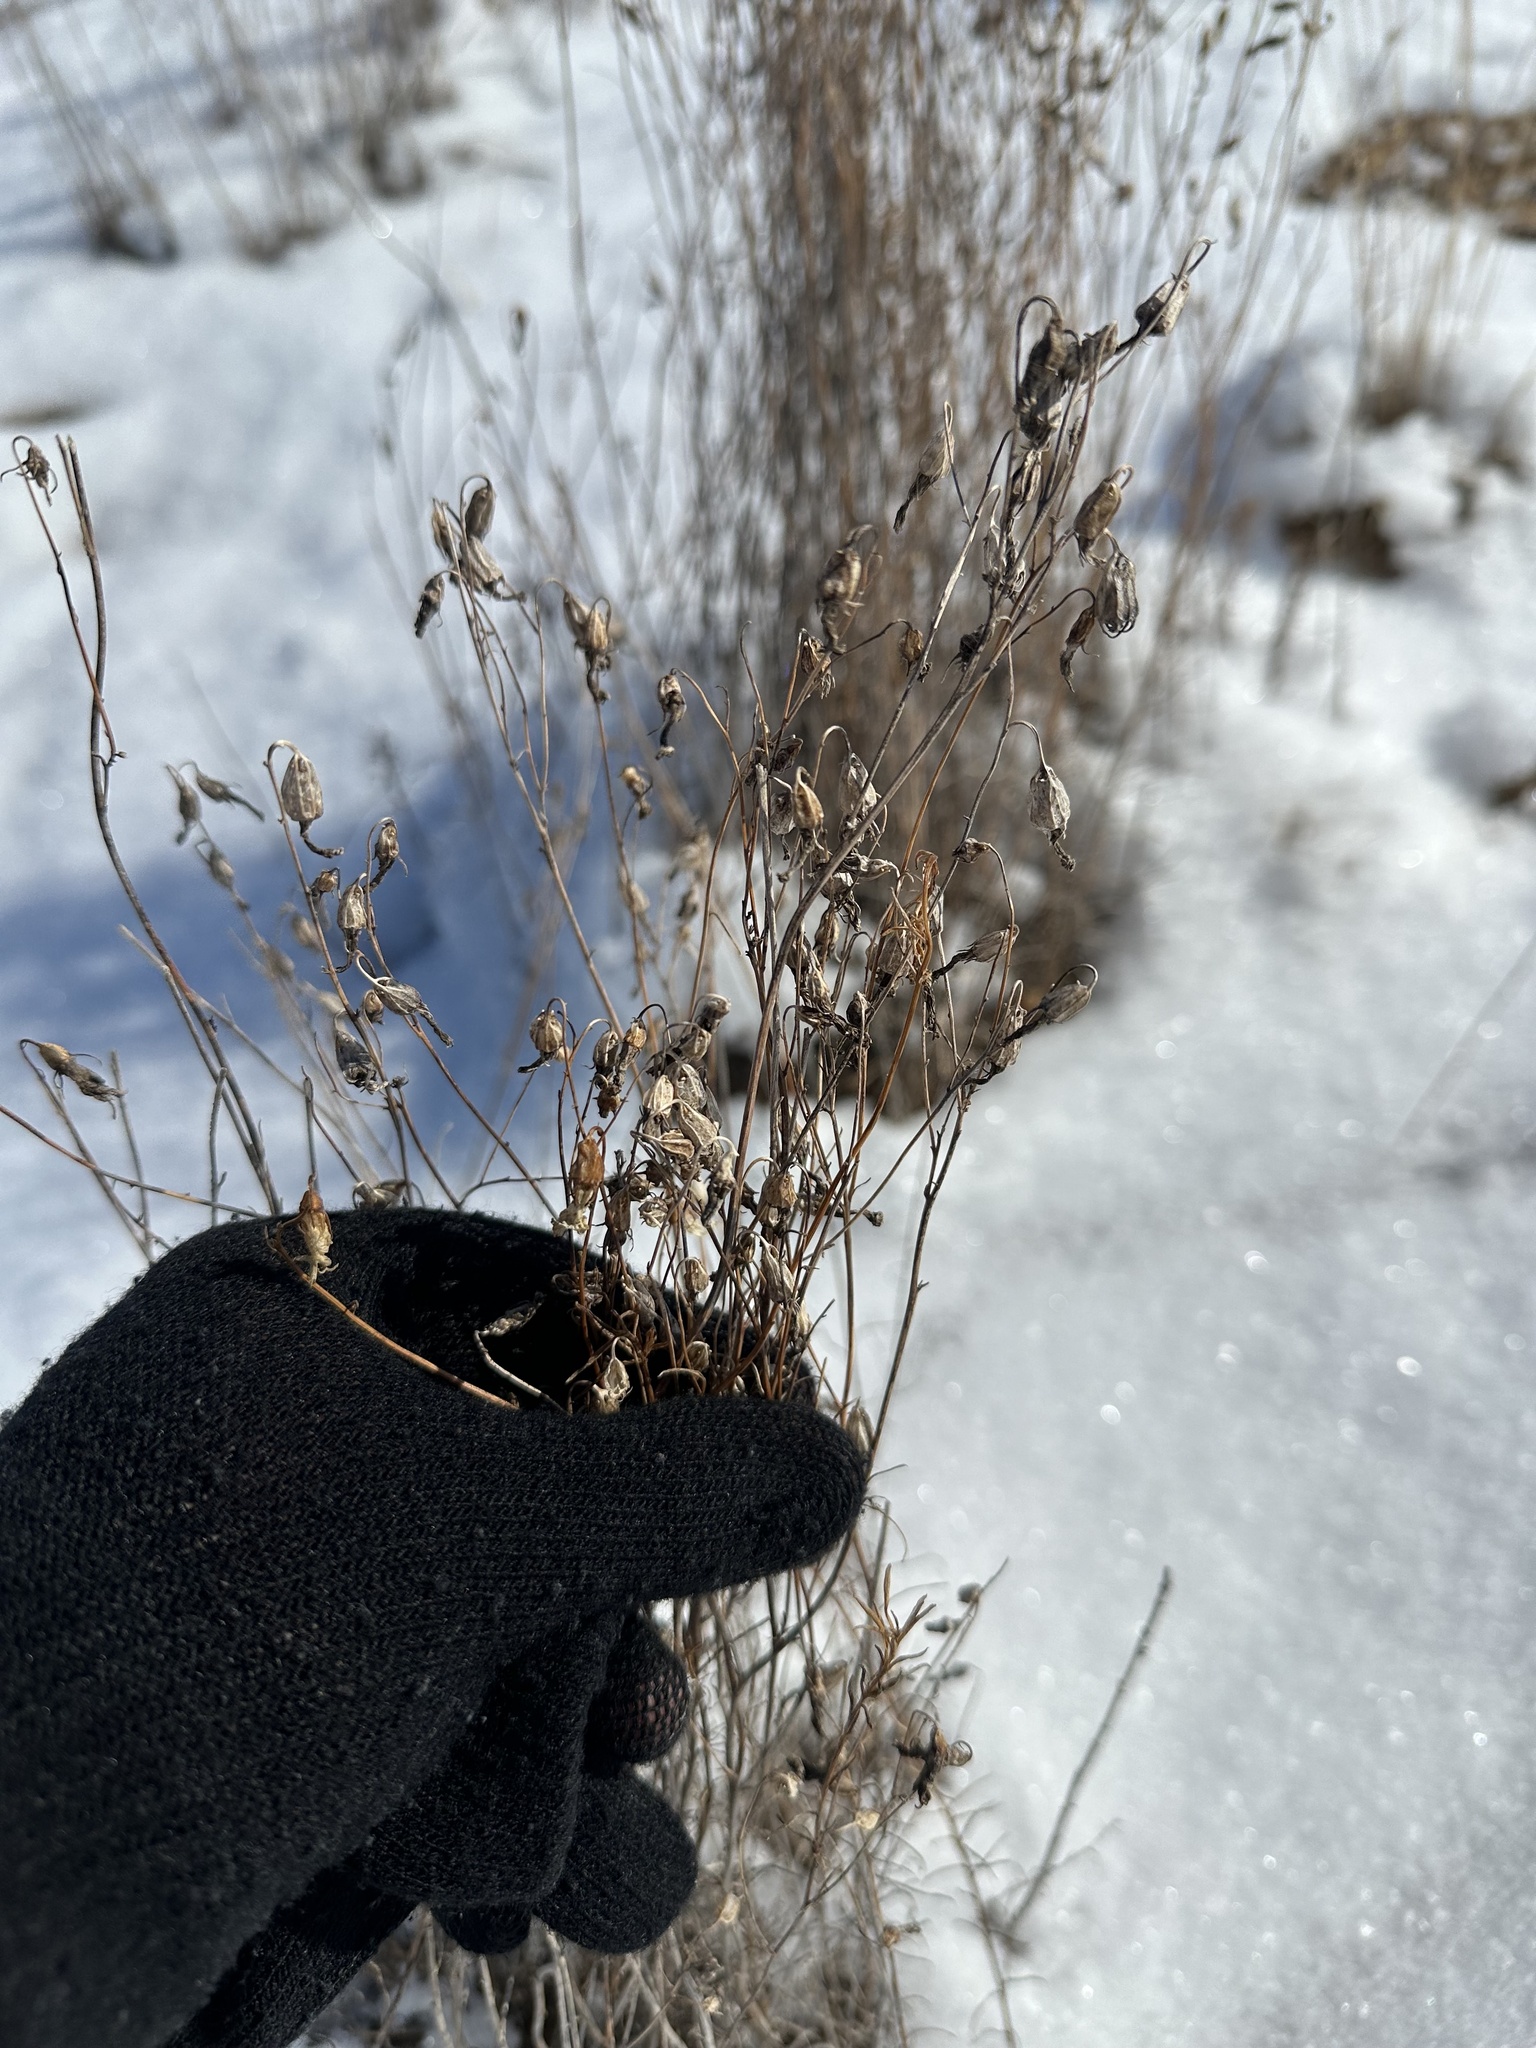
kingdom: Plantae
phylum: Tracheophyta
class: Magnoliopsida
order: Asterales
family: Campanulaceae
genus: Campanula
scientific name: Campanula alaskana
